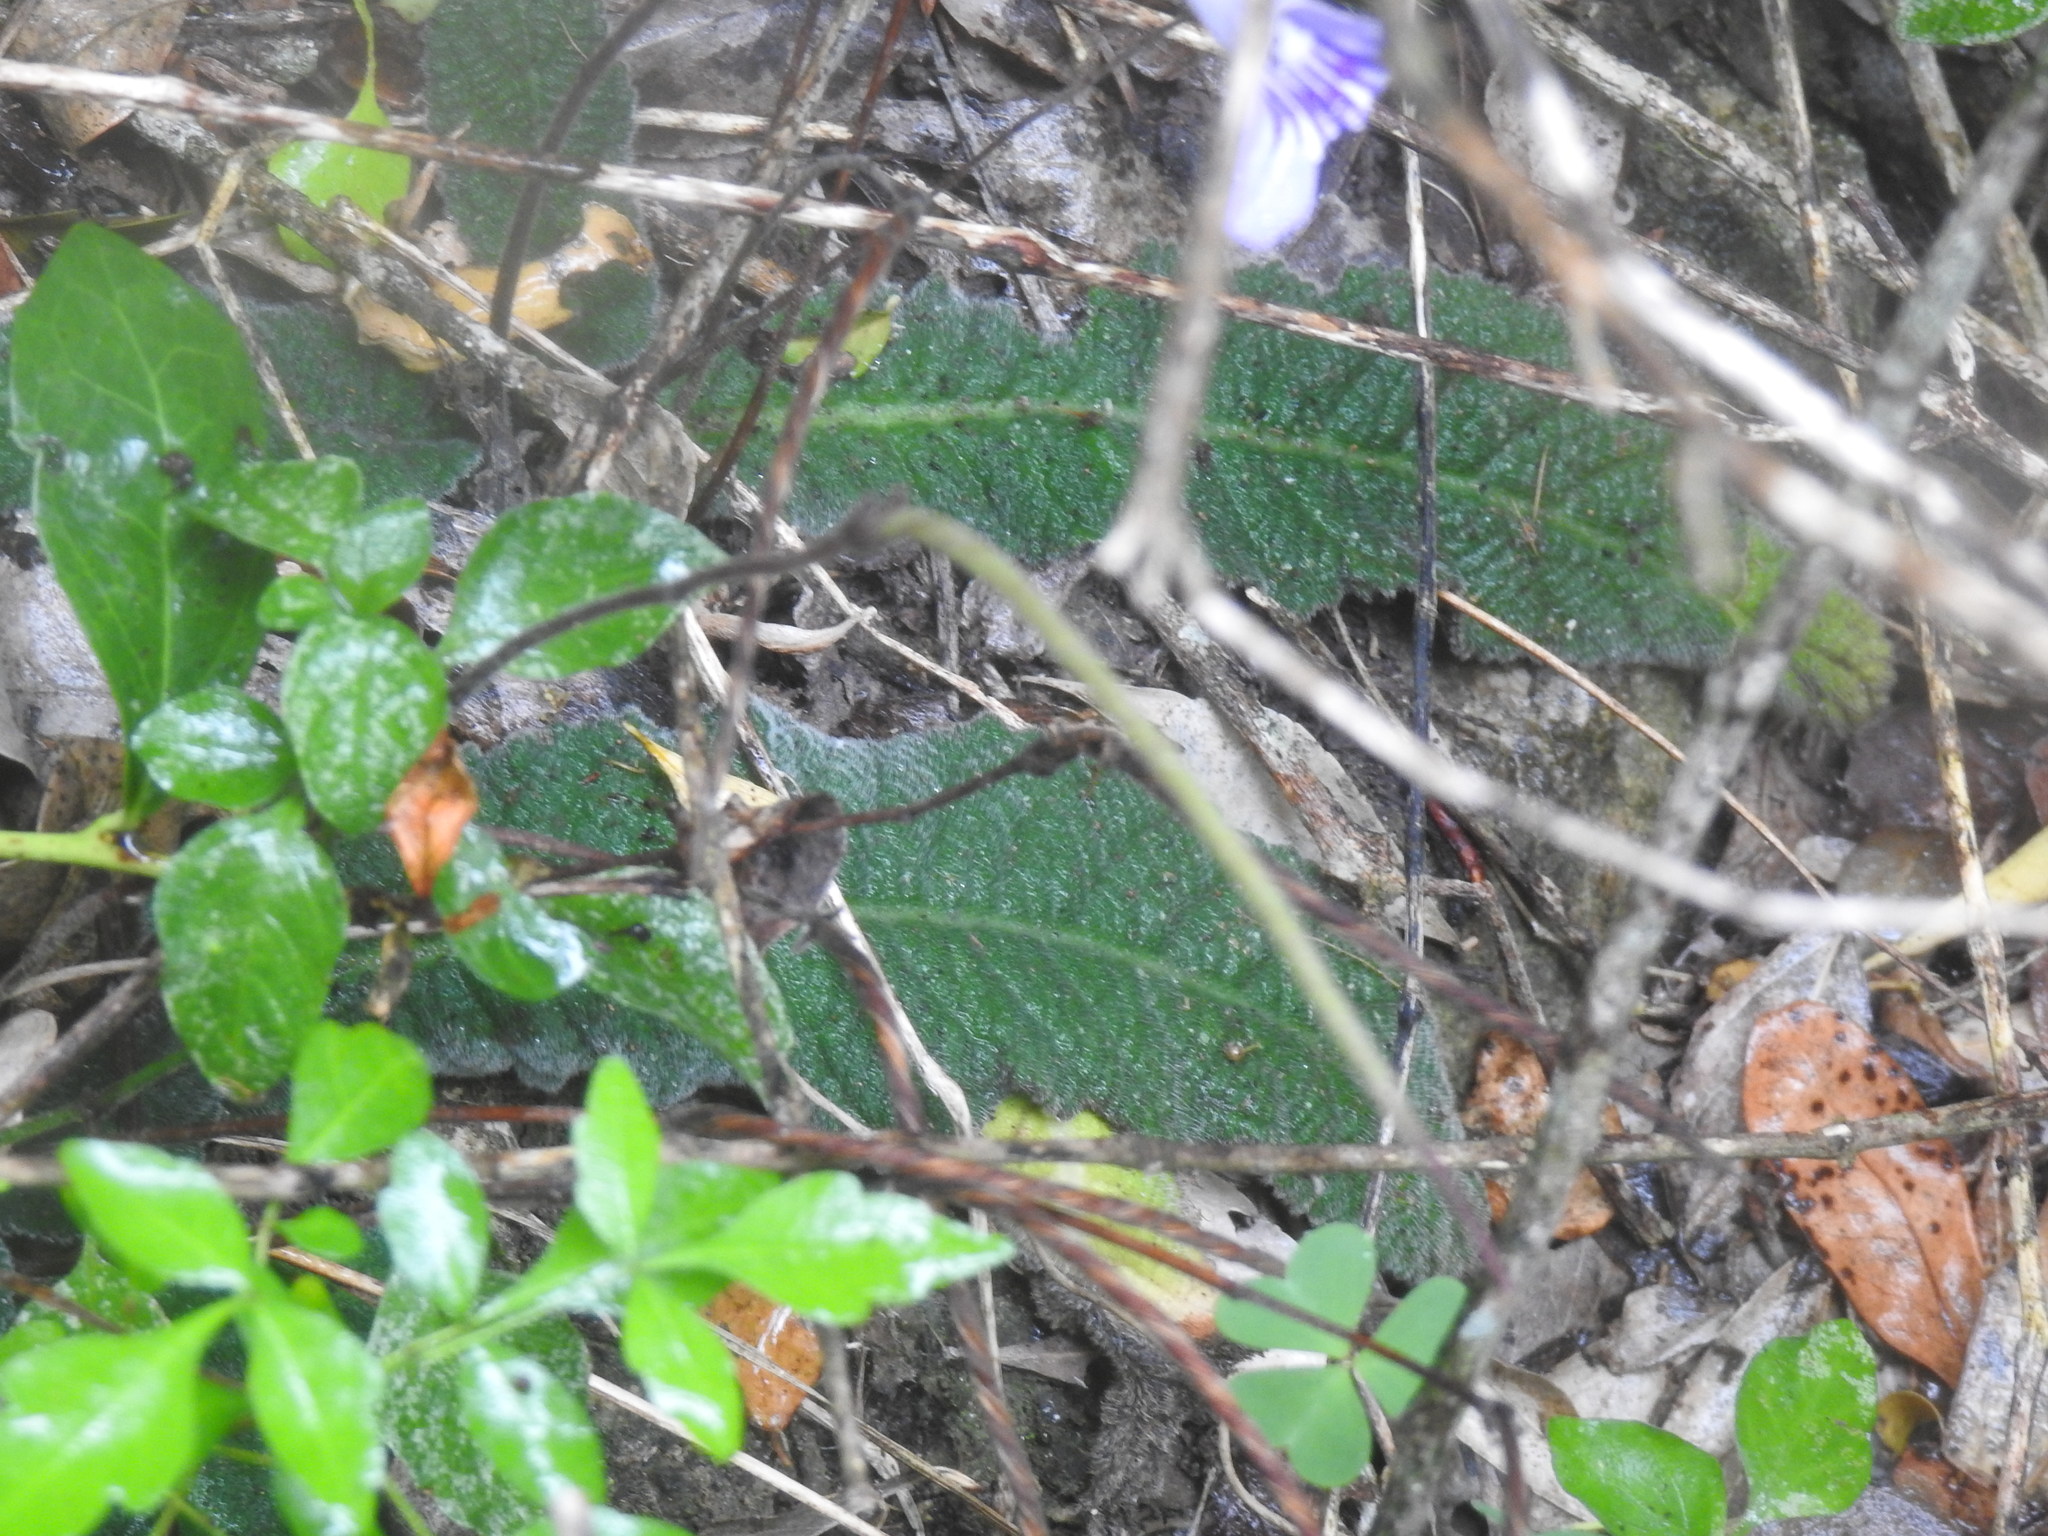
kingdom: Plantae
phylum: Tracheophyta
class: Magnoliopsida
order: Lamiales
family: Gesneriaceae
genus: Streptocarpus
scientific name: Streptocarpus rexii
